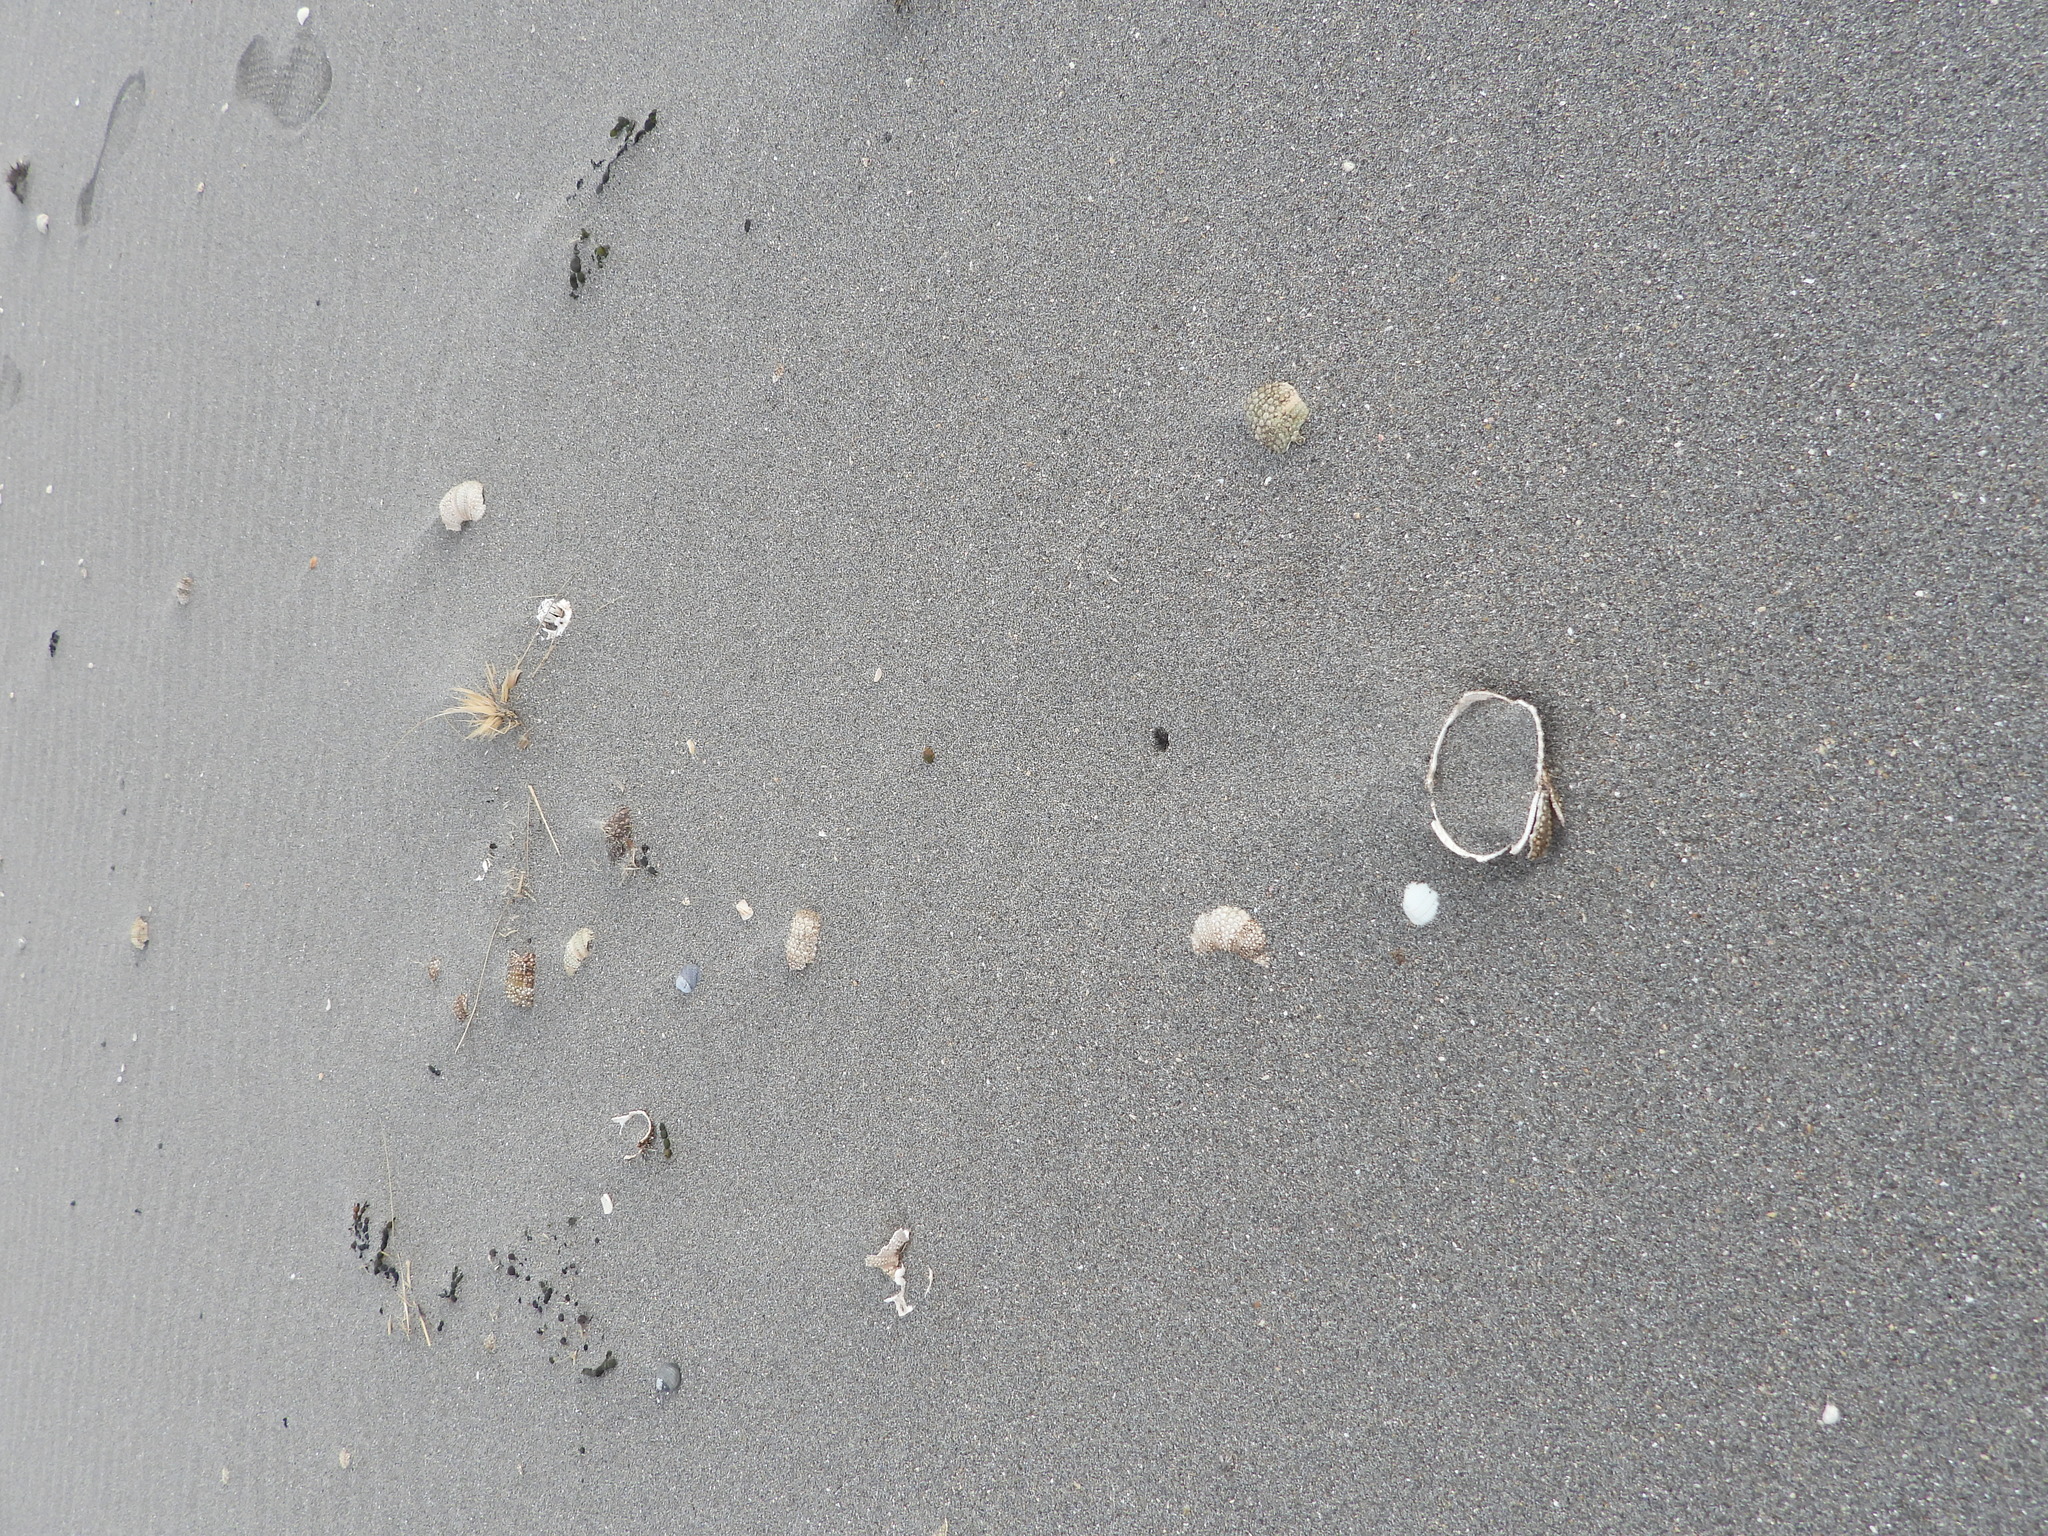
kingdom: Animalia
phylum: Echinodermata
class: Echinoidea
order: Camarodonta
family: Echinometridae
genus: Evechinus
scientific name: Evechinus chloroticus
